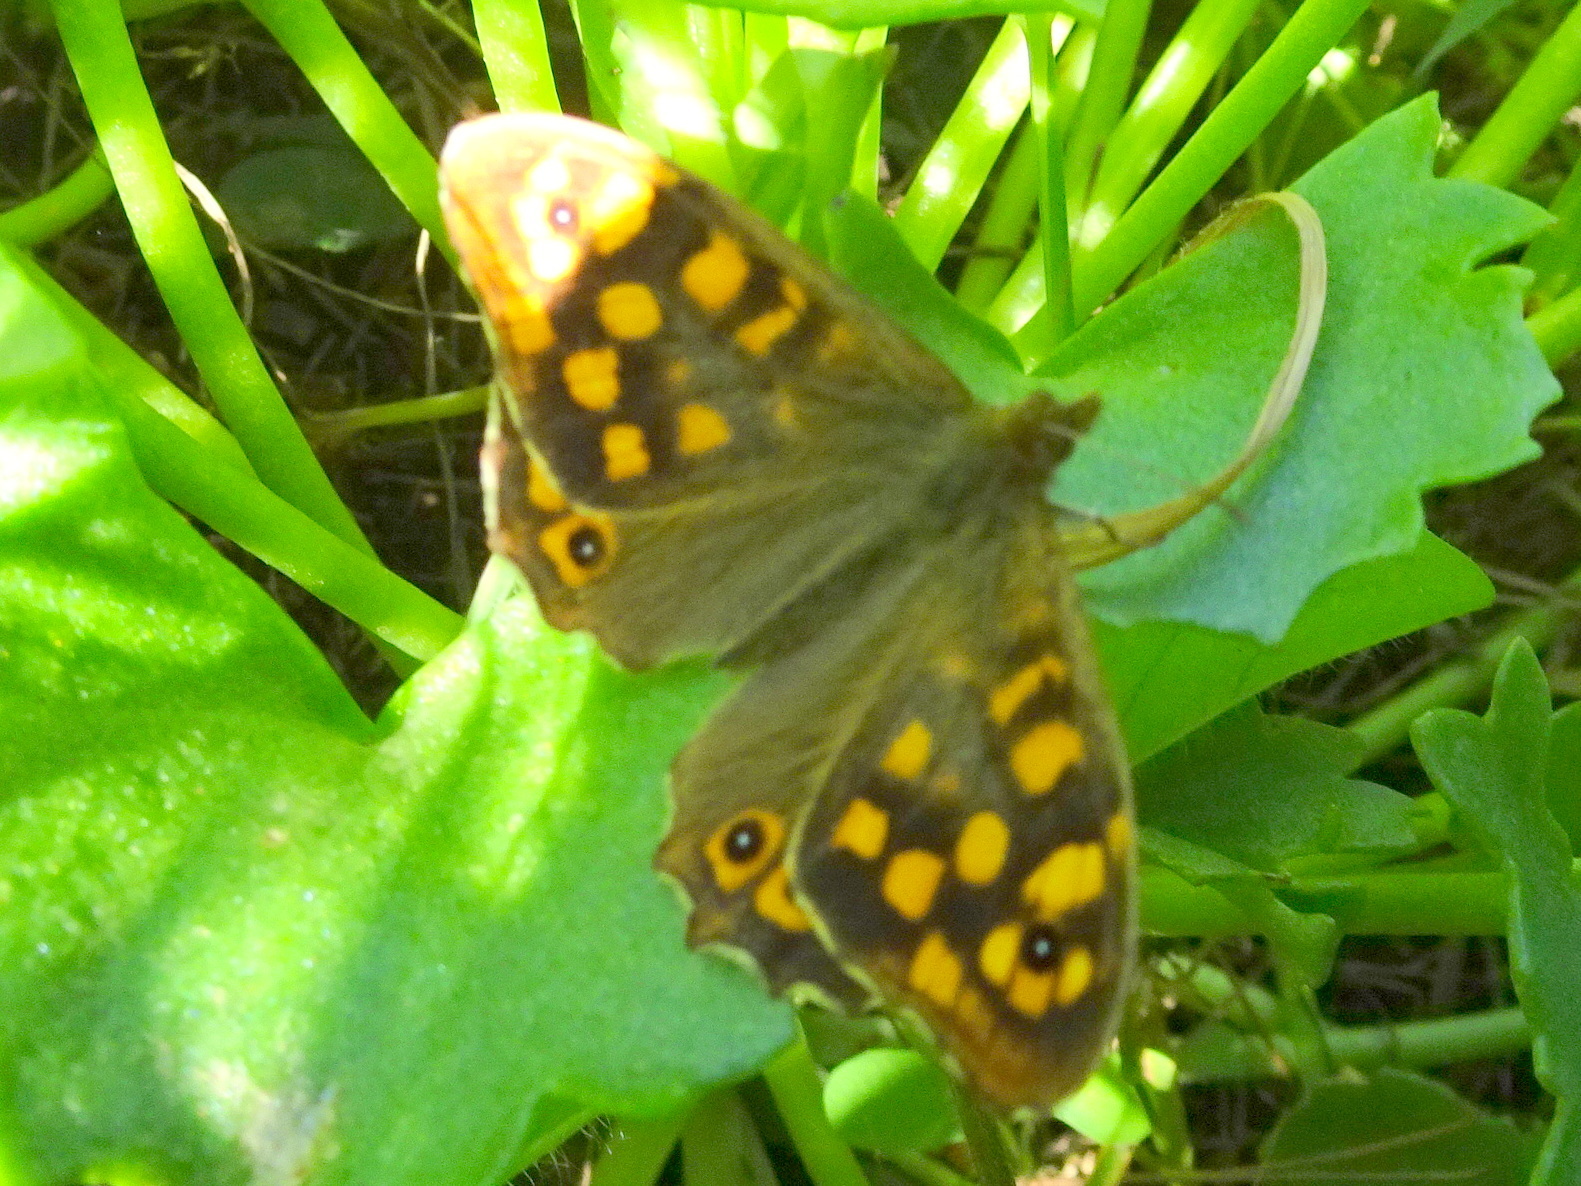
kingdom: Animalia
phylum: Arthropoda
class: Insecta
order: Lepidoptera
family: Nymphalidae
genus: Pararge
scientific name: Pararge aegeria
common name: Speckled wood
